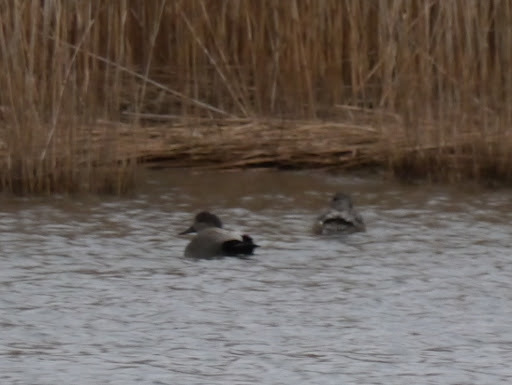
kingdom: Animalia
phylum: Chordata
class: Aves
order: Anseriformes
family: Anatidae
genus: Mareca
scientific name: Mareca strepera
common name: Gadwall
